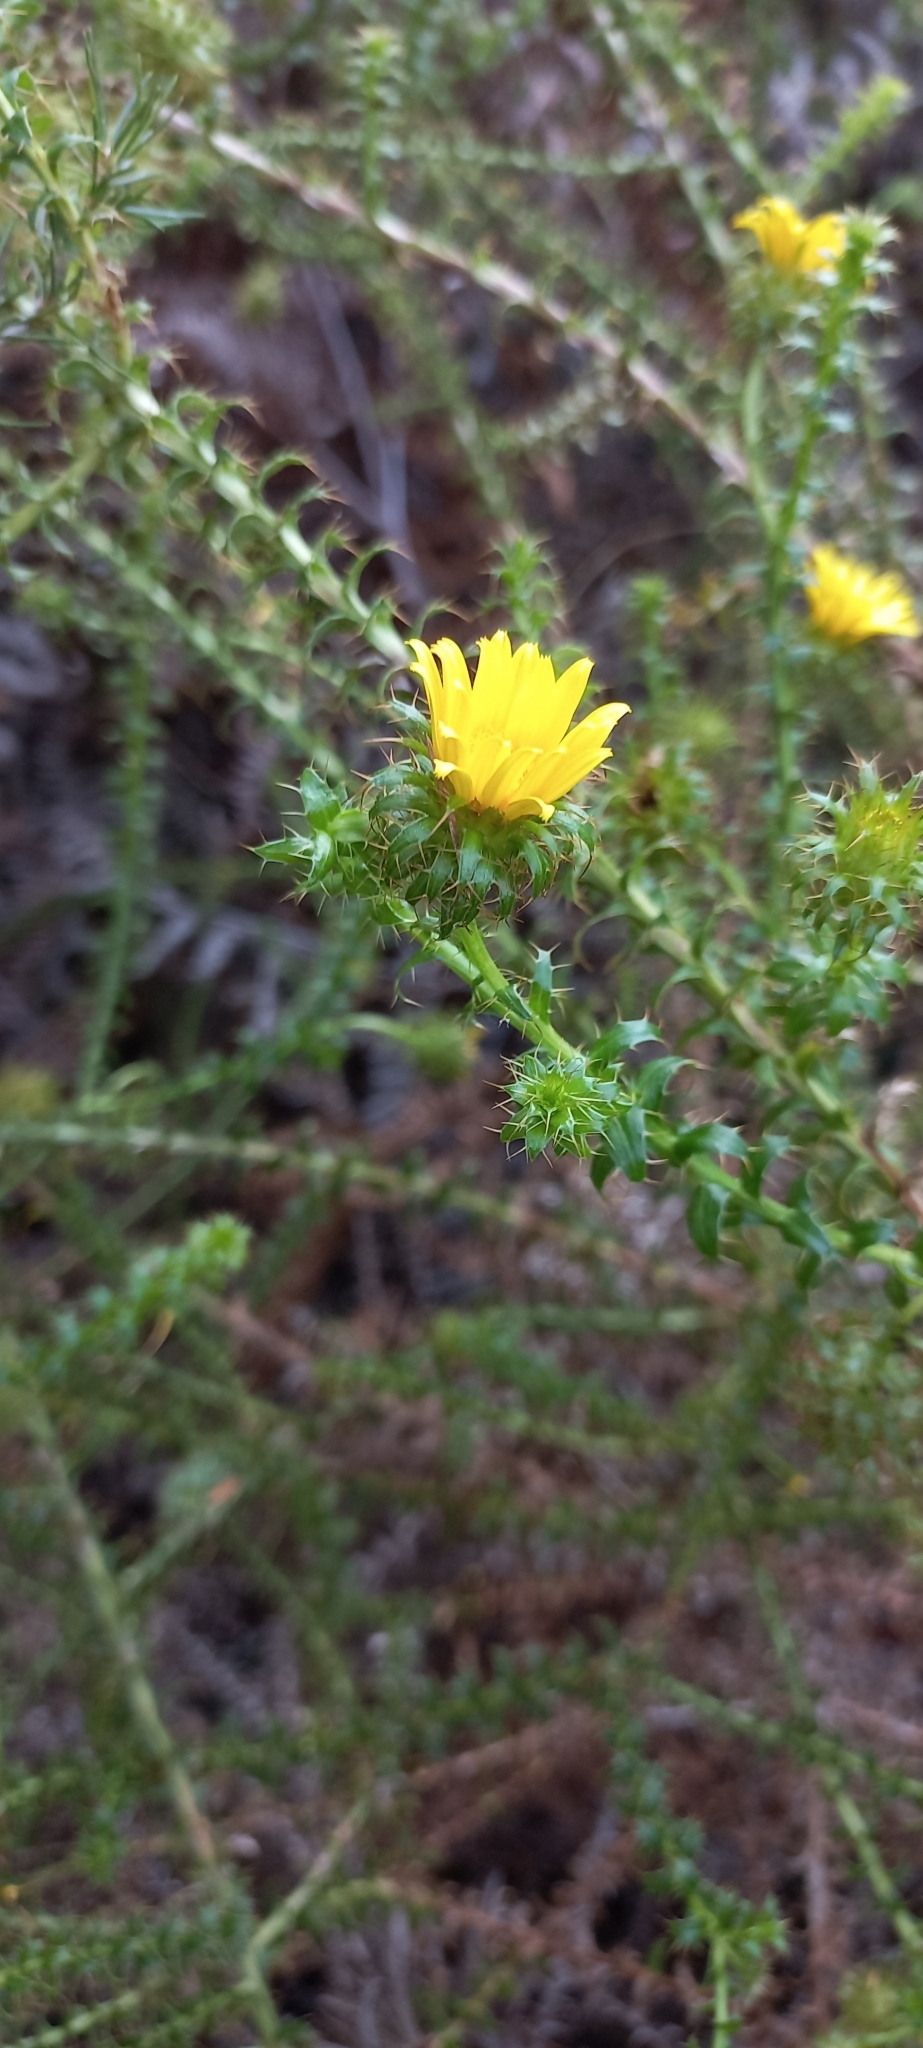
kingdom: Plantae
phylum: Tracheophyta
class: Magnoliopsida
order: Asterales
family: Asteraceae
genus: Cullumia
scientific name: Cullumia setosa
